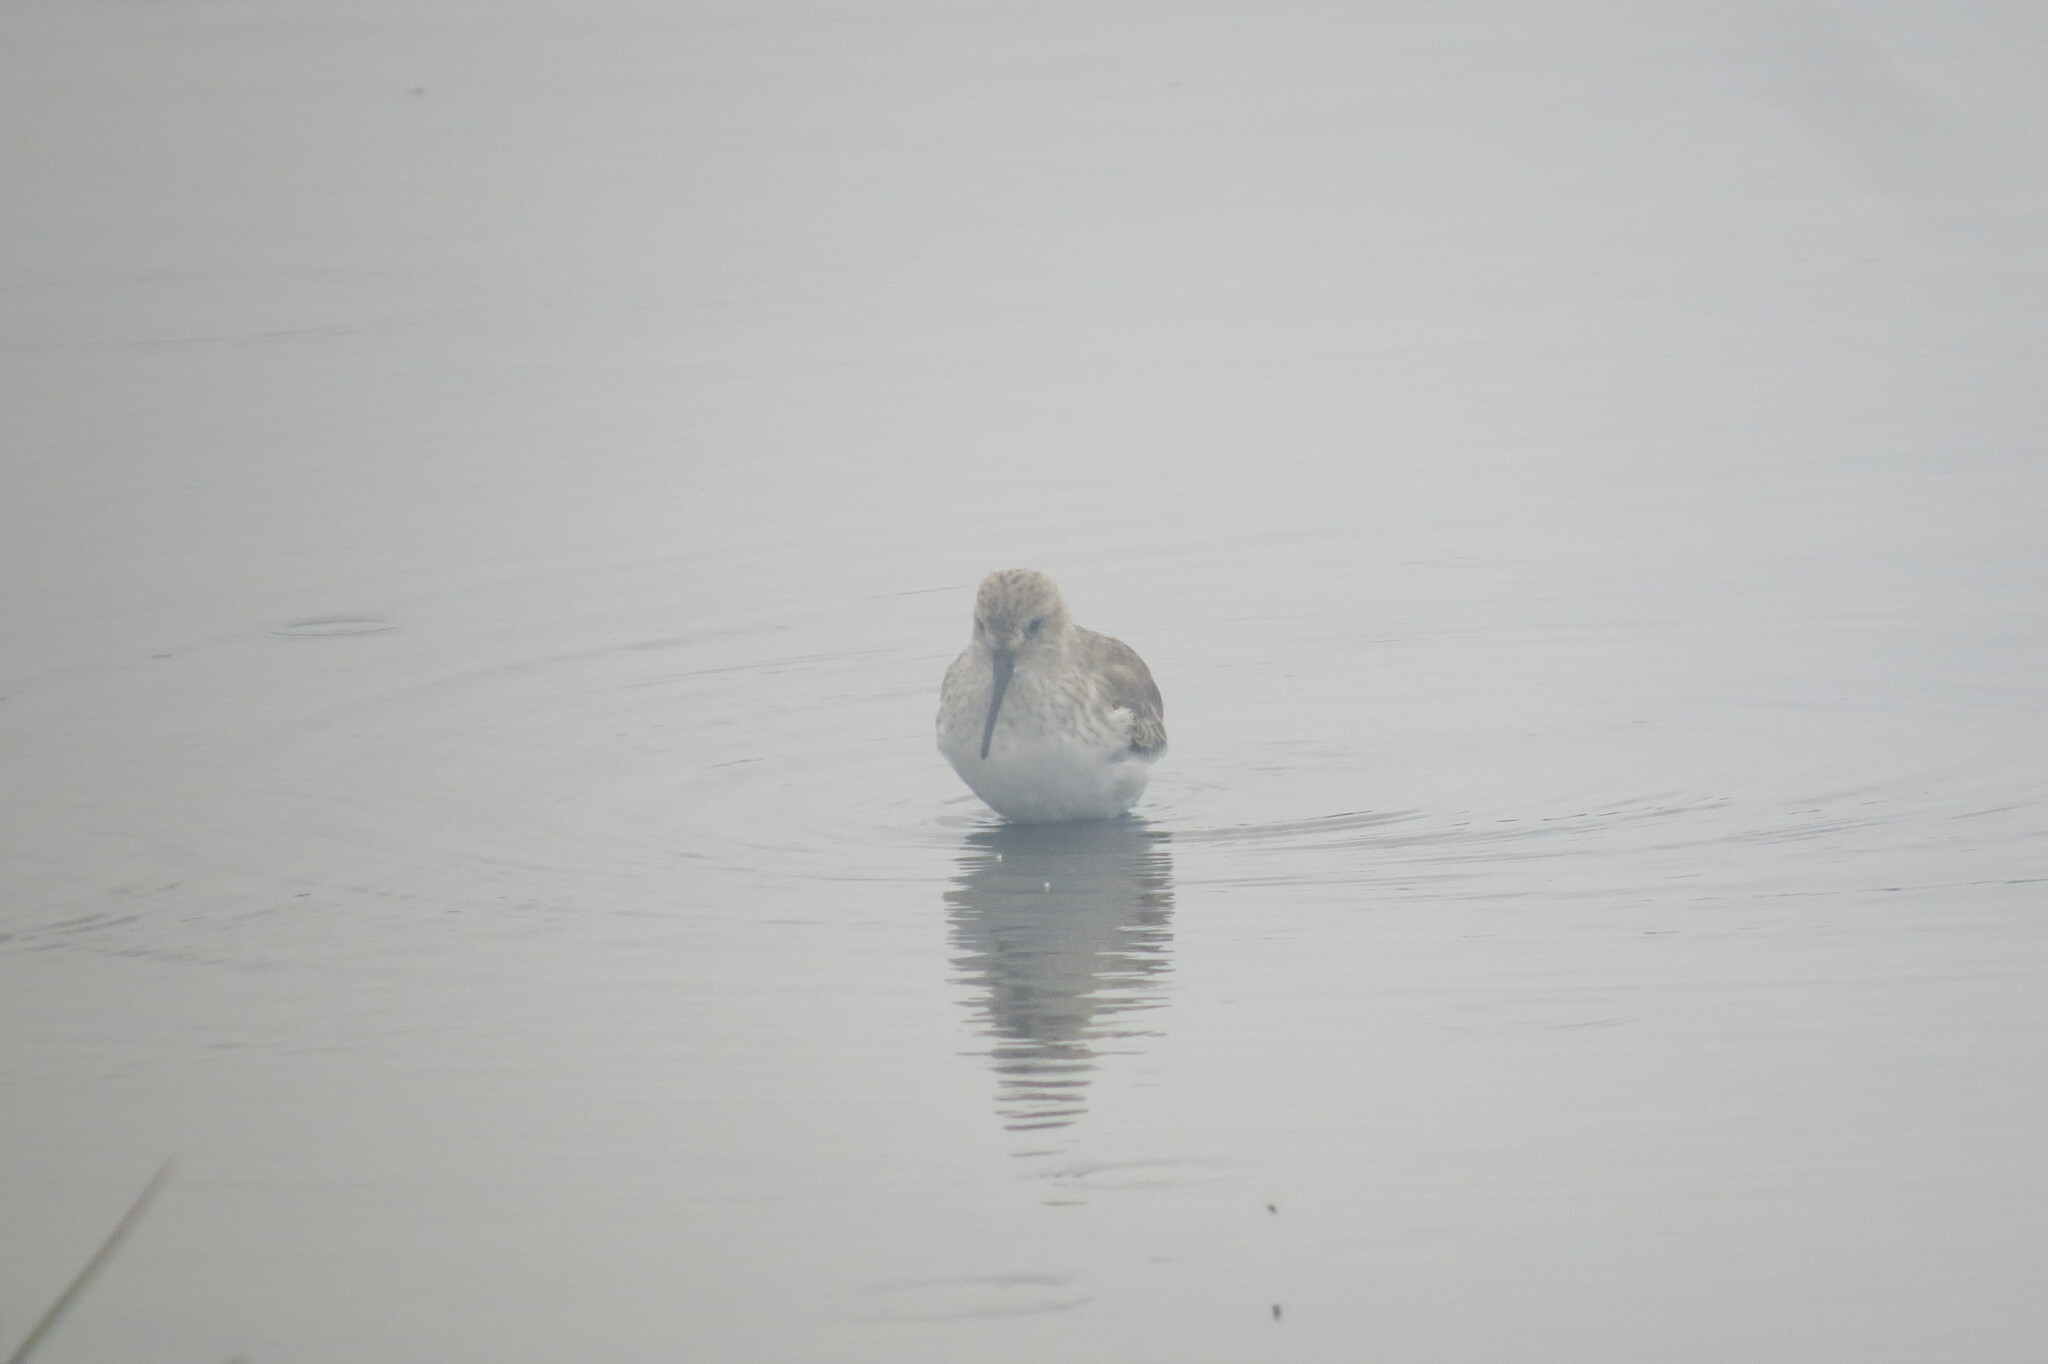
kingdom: Animalia
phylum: Chordata
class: Aves
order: Charadriiformes
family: Scolopacidae
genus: Calidris
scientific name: Calidris alpina
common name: Dunlin
